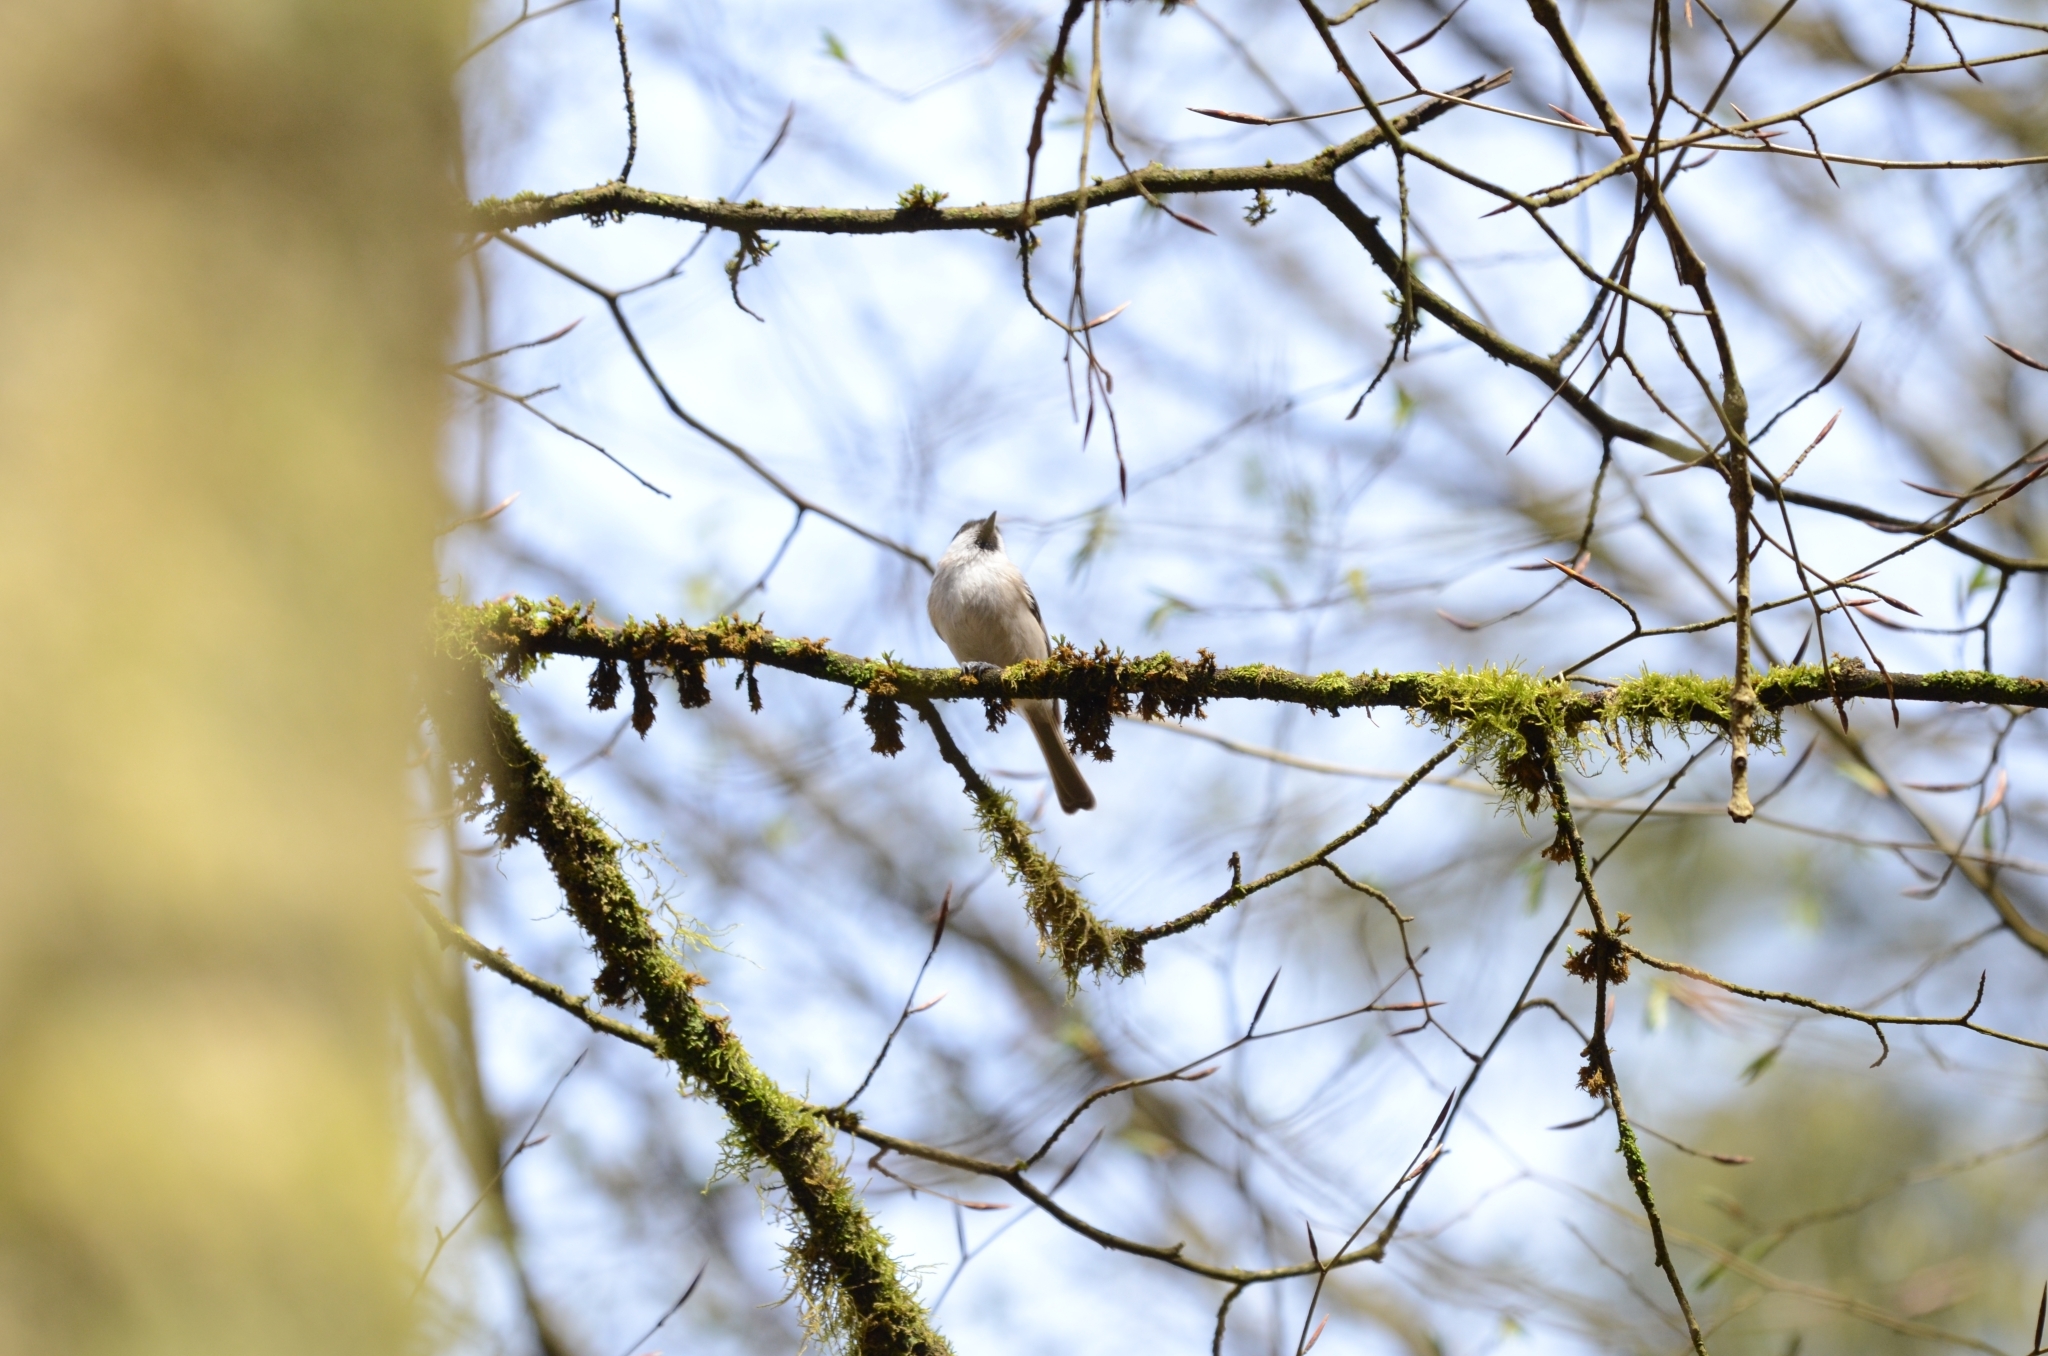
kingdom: Animalia
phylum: Chordata
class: Aves
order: Passeriformes
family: Paridae
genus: Poecile
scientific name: Poecile palustris
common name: Marsh tit
